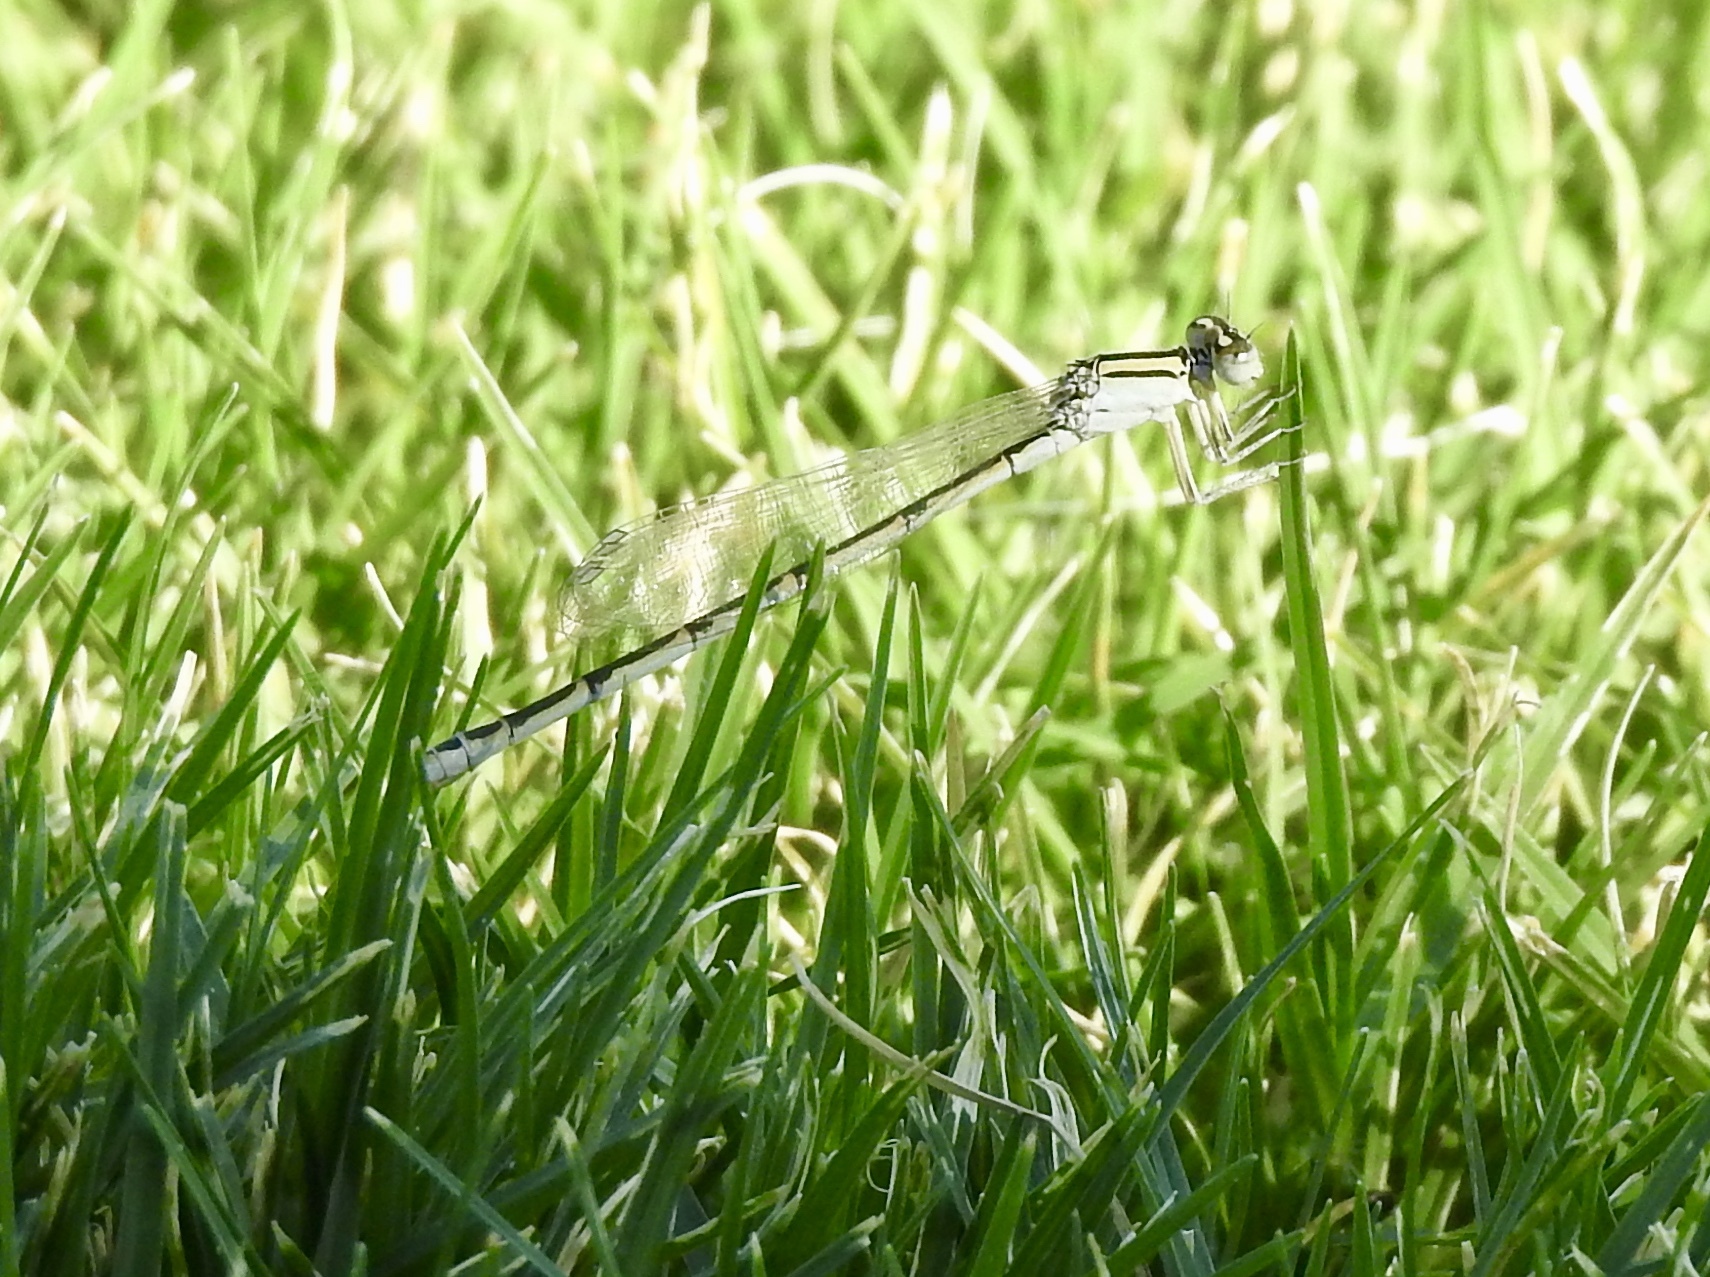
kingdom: Animalia
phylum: Arthropoda
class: Insecta
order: Odonata
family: Coenagrionidae
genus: Enallagma
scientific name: Enallagma civile
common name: Damselfly
